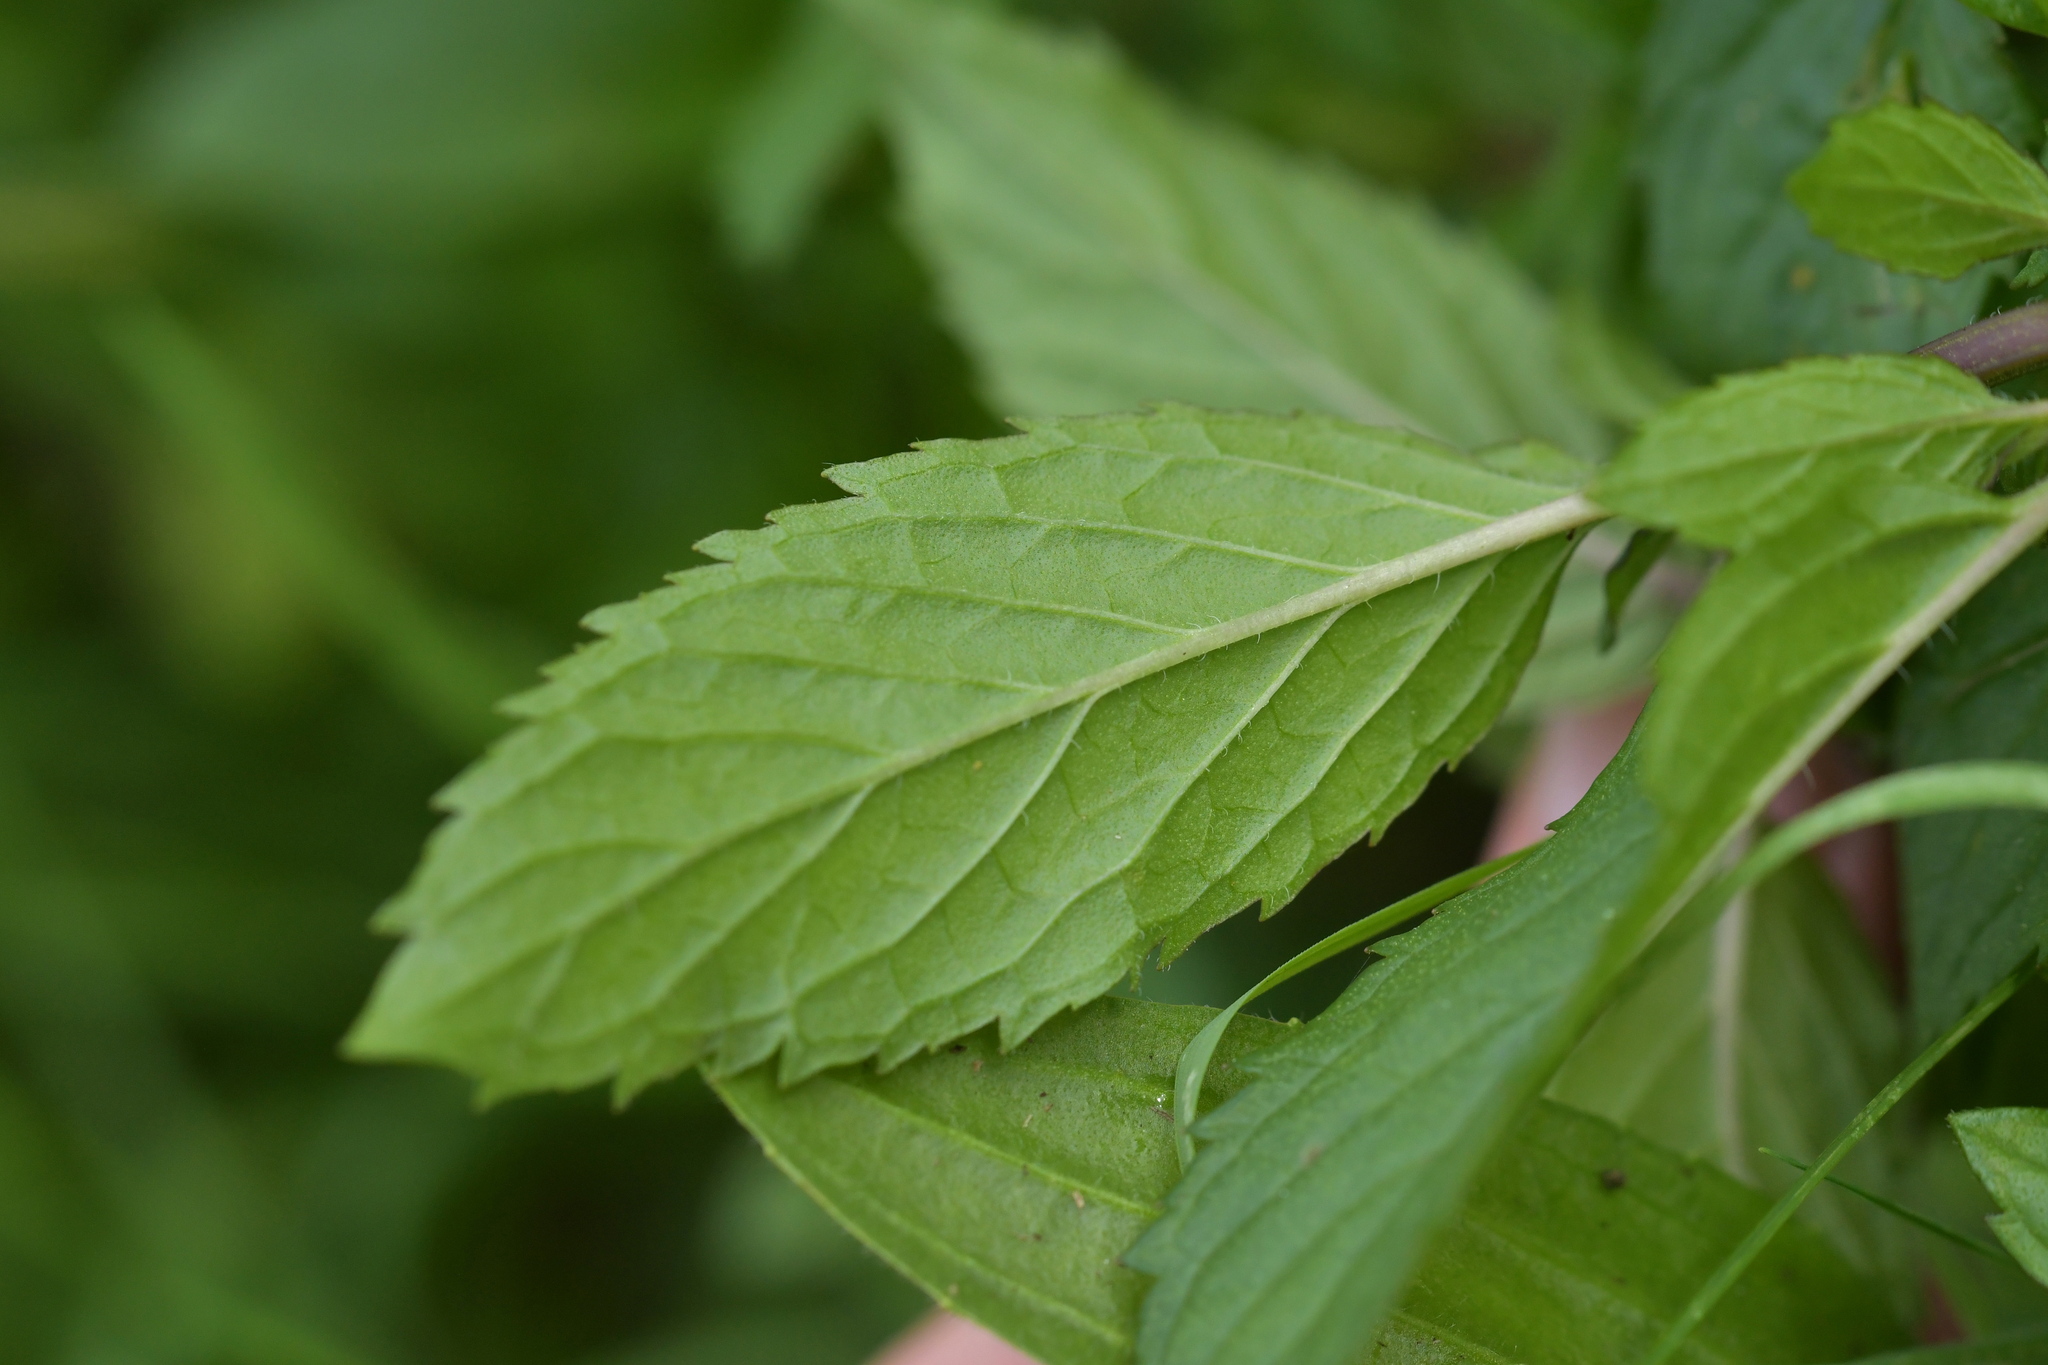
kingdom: Plantae
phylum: Tracheophyta
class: Magnoliopsida
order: Lamiales
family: Lamiaceae
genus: Mentha
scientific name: Mentha spicata
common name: Spearmint
